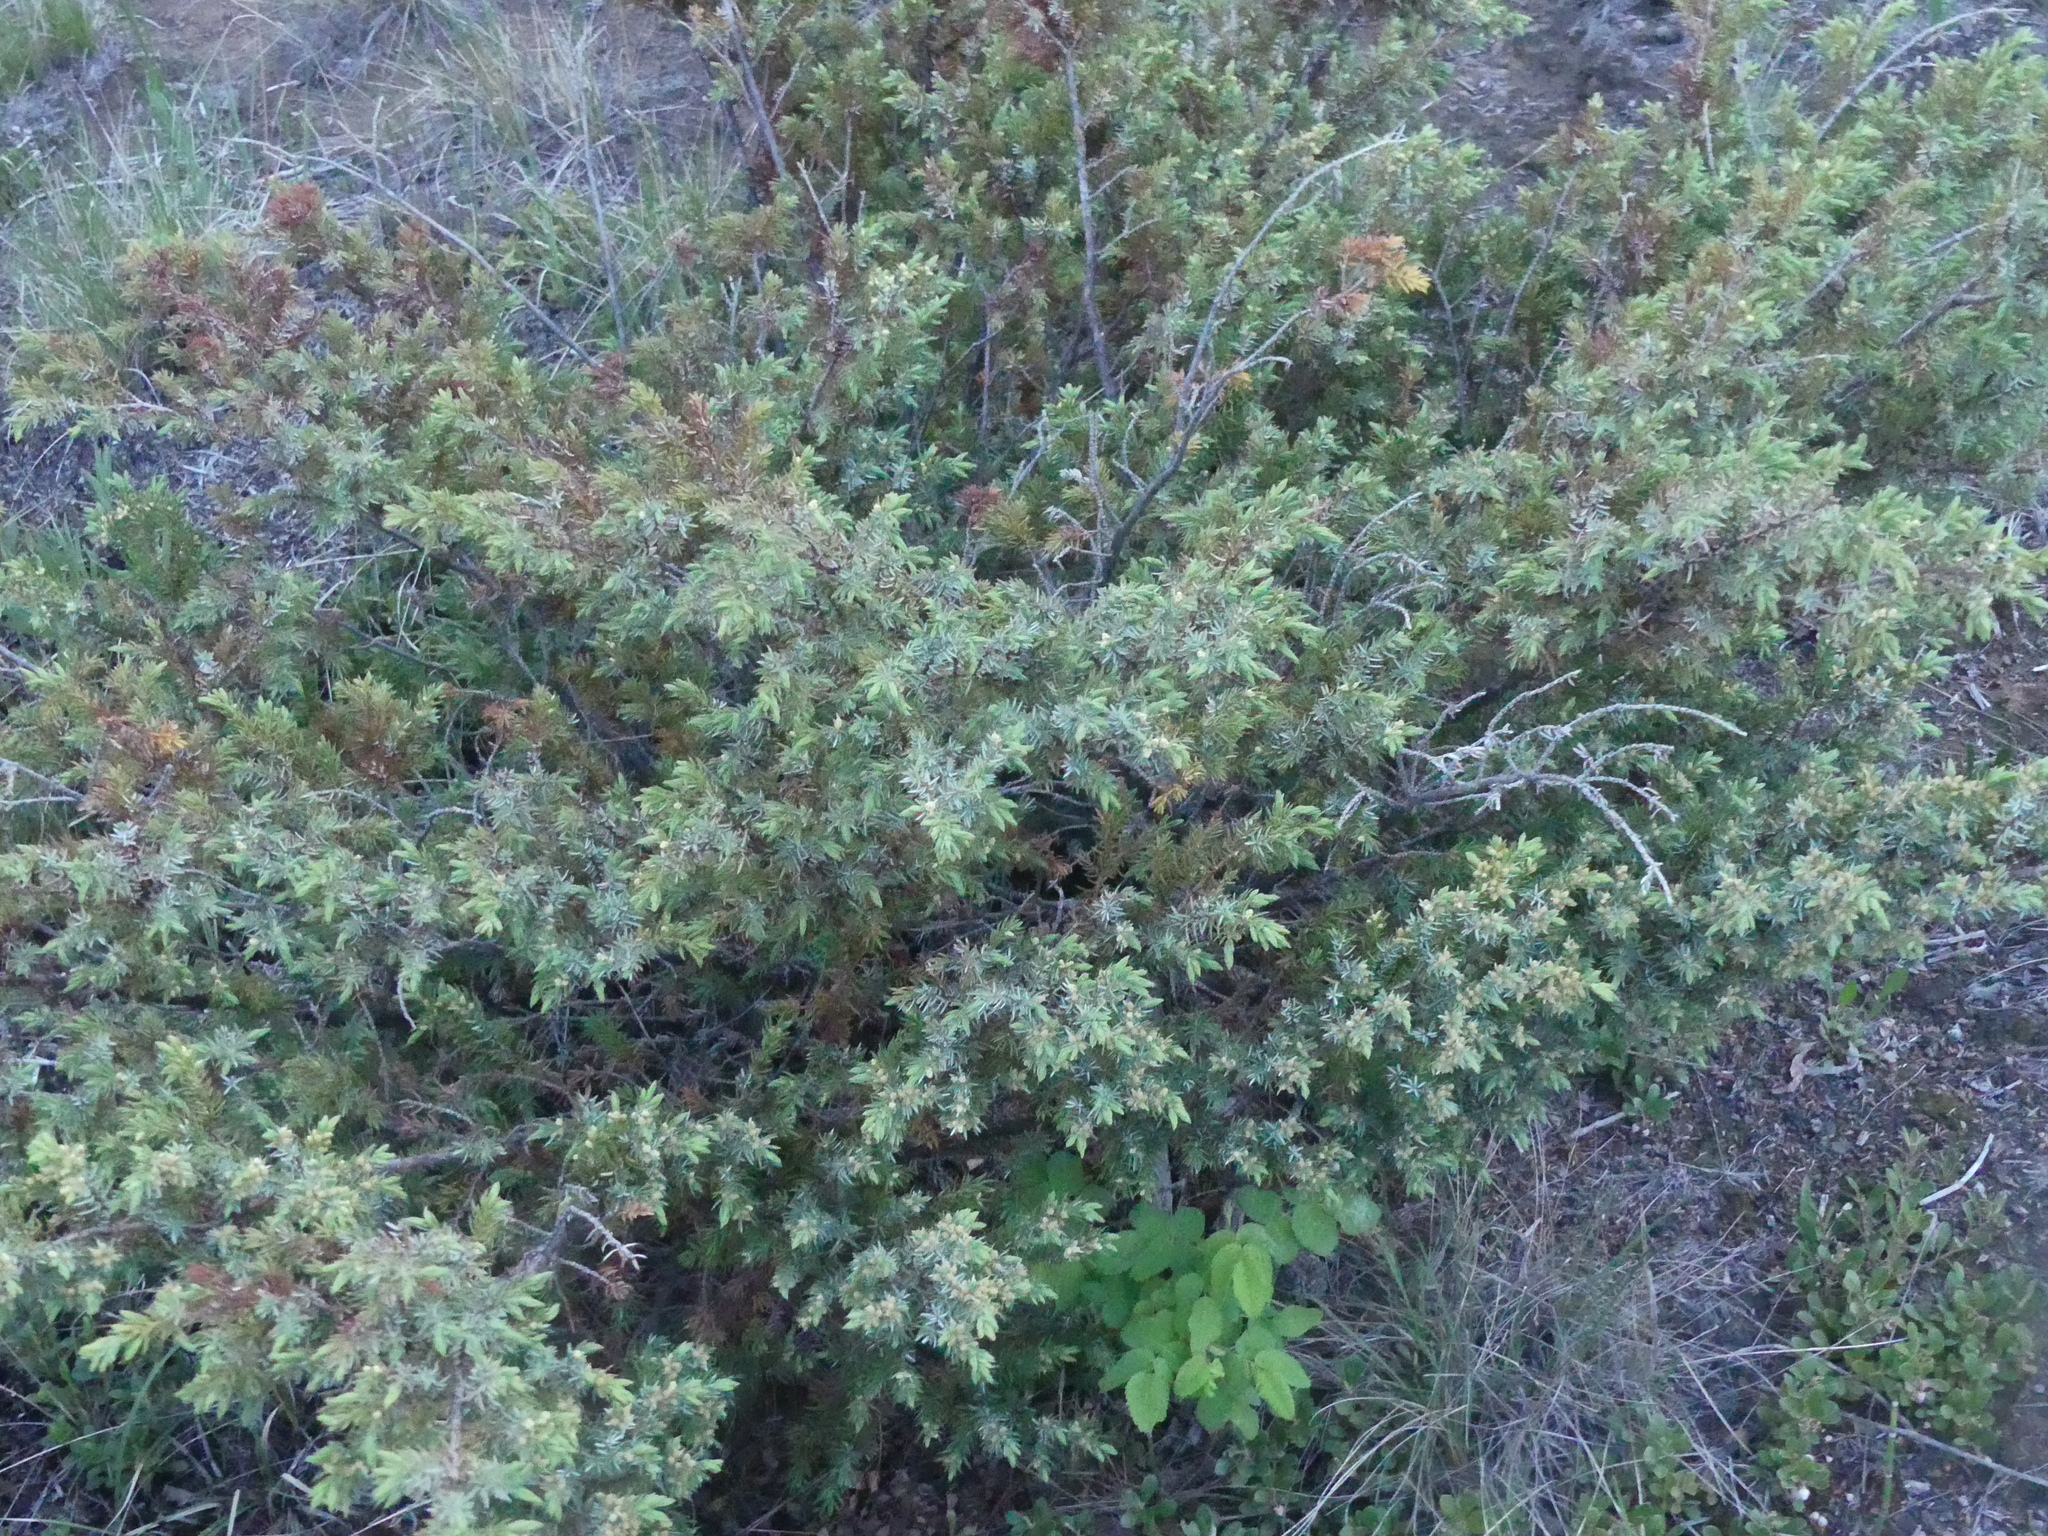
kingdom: Plantae
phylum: Tracheophyta
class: Pinopsida
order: Pinales
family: Cupressaceae
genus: Juniperus
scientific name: Juniperus communis
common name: Common juniper
